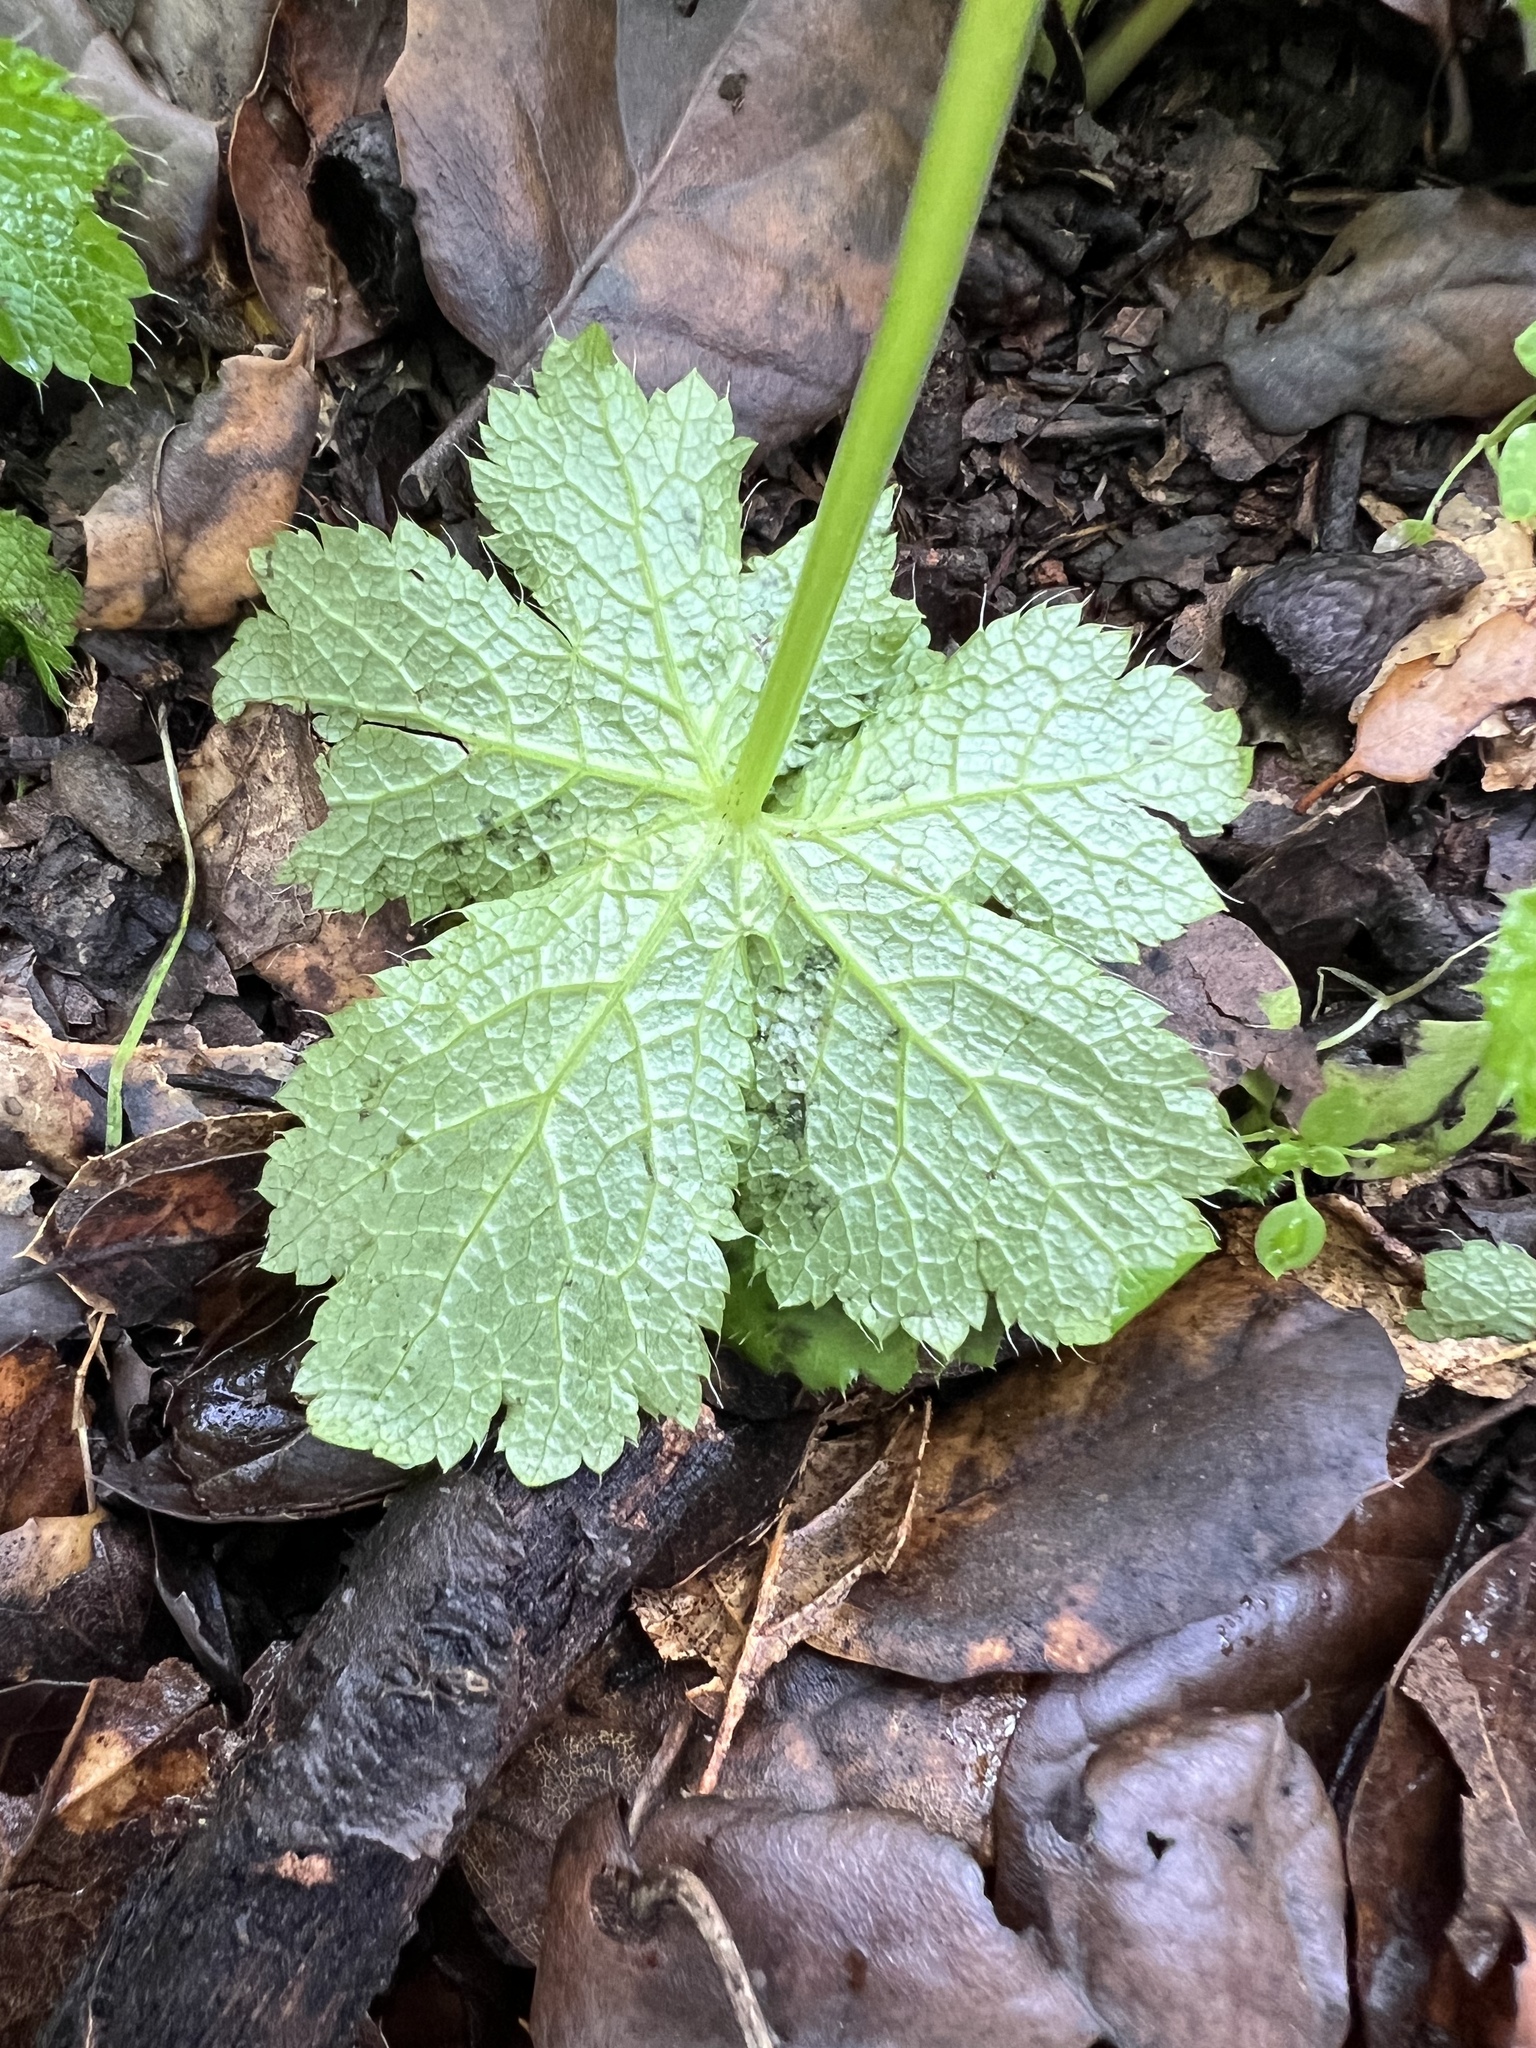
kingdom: Plantae
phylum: Tracheophyta
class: Magnoliopsida
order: Apiales
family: Apiaceae
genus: Sanicula
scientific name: Sanicula crassicaulis
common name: Western snakeroot
